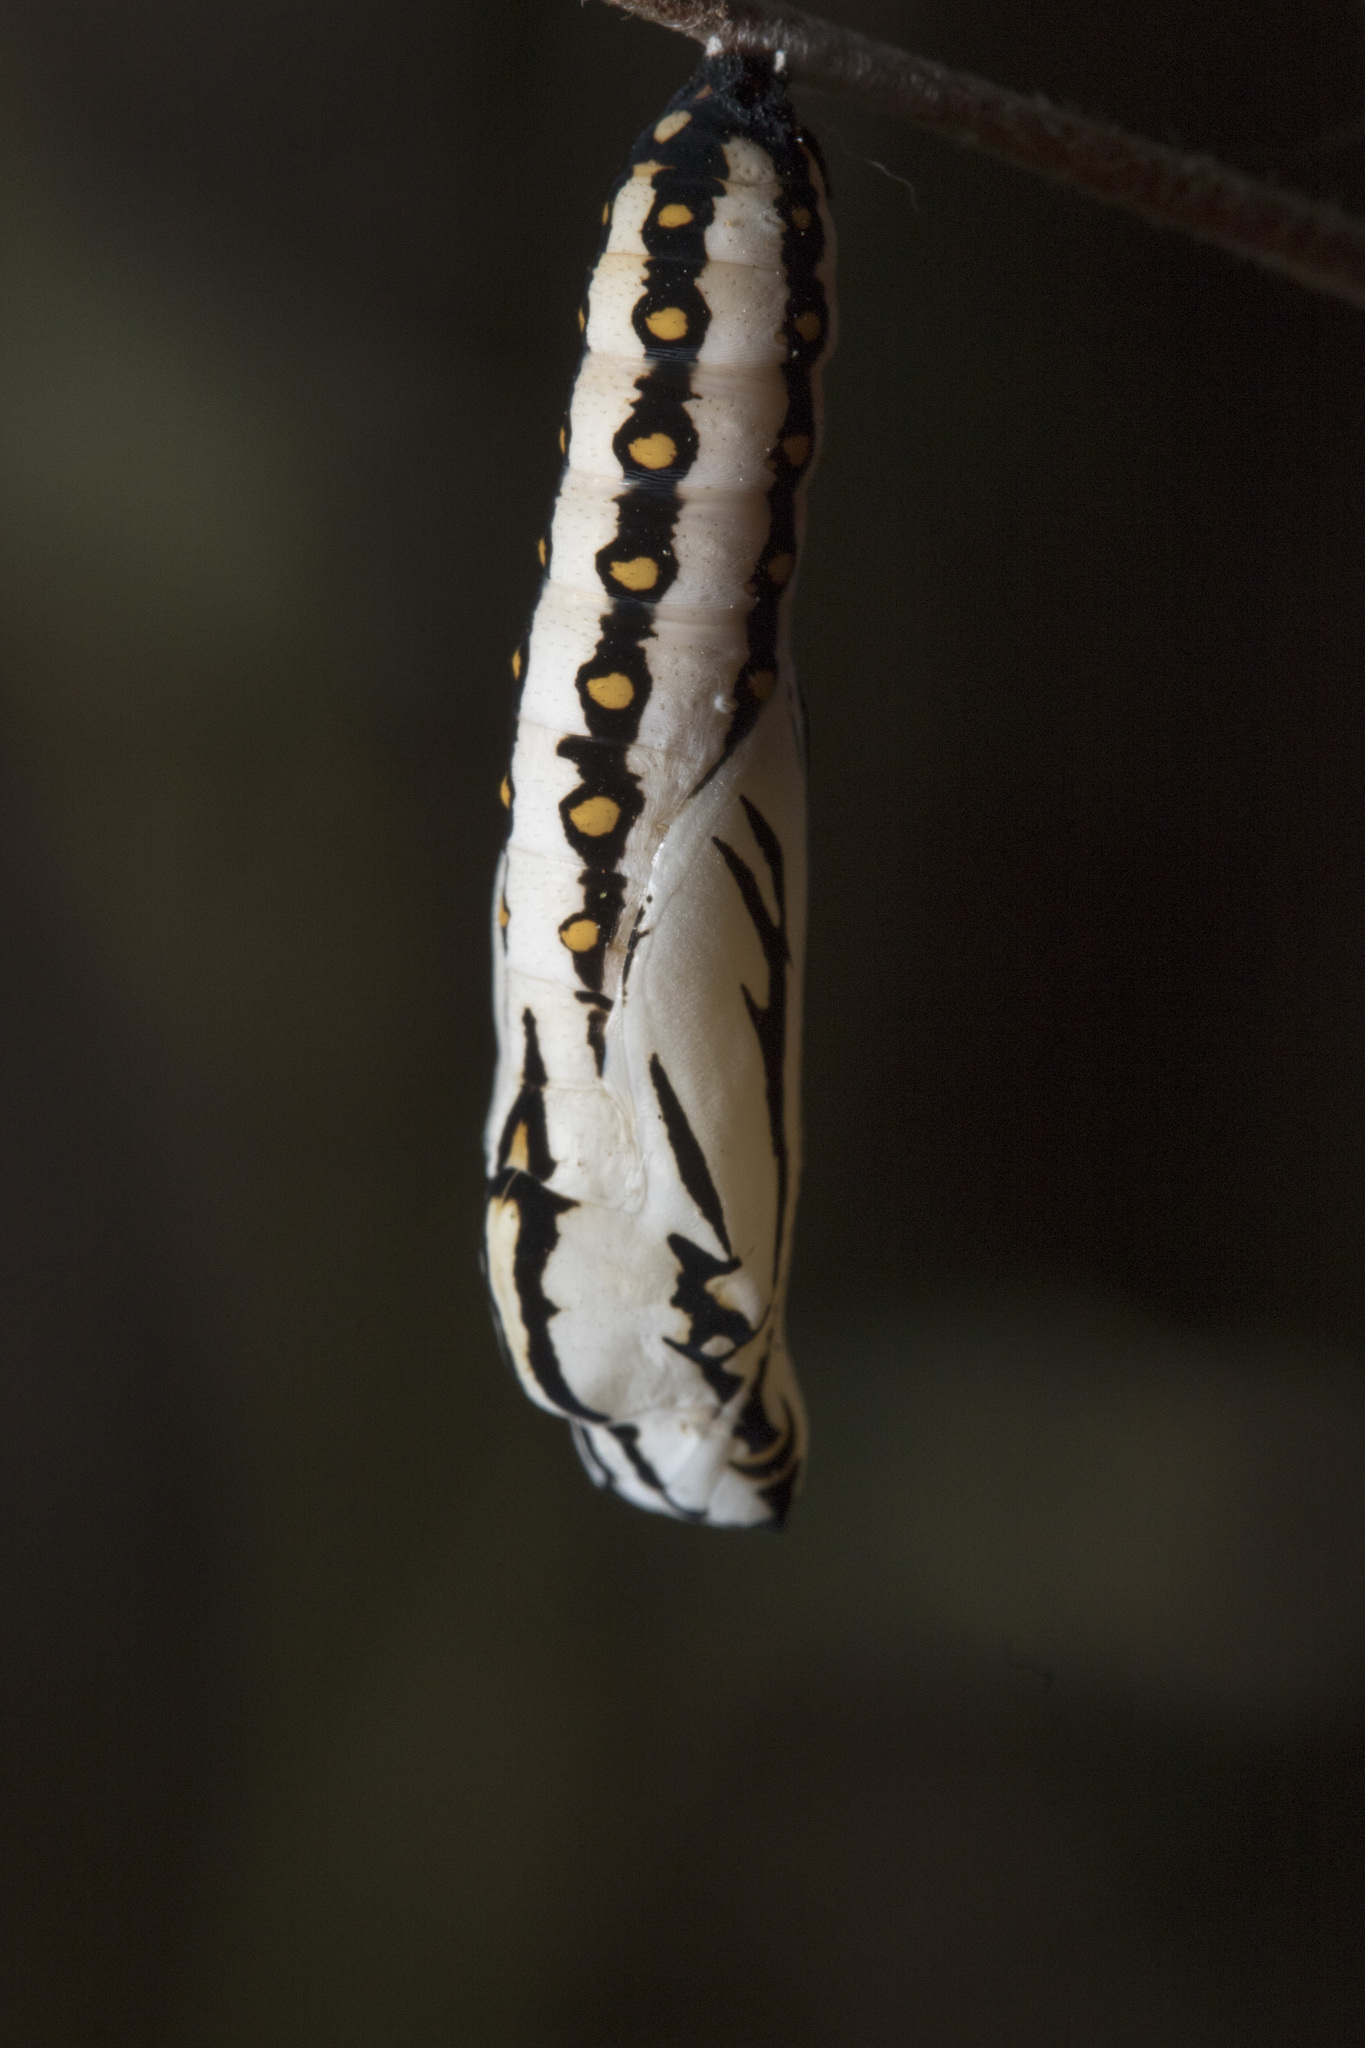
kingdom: Animalia
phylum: Arthropoda
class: Insecta
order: Lepidoptera
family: Nymphalidae
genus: Acraea
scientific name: Acraea terpsicore
